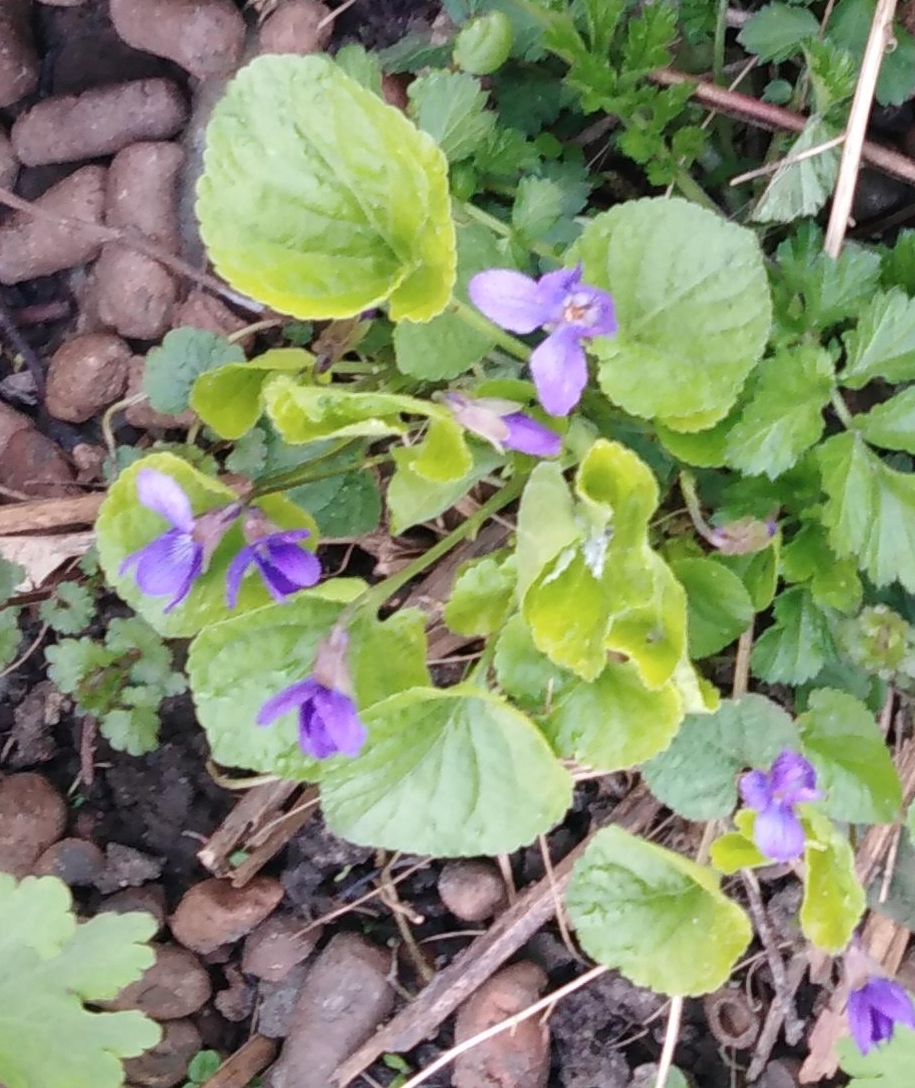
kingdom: Plantae
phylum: Tracheophyta
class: Magnoliopsida
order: Malpighiales
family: Violaceae
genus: Viola
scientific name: Viola odorata
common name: Sweet violet
